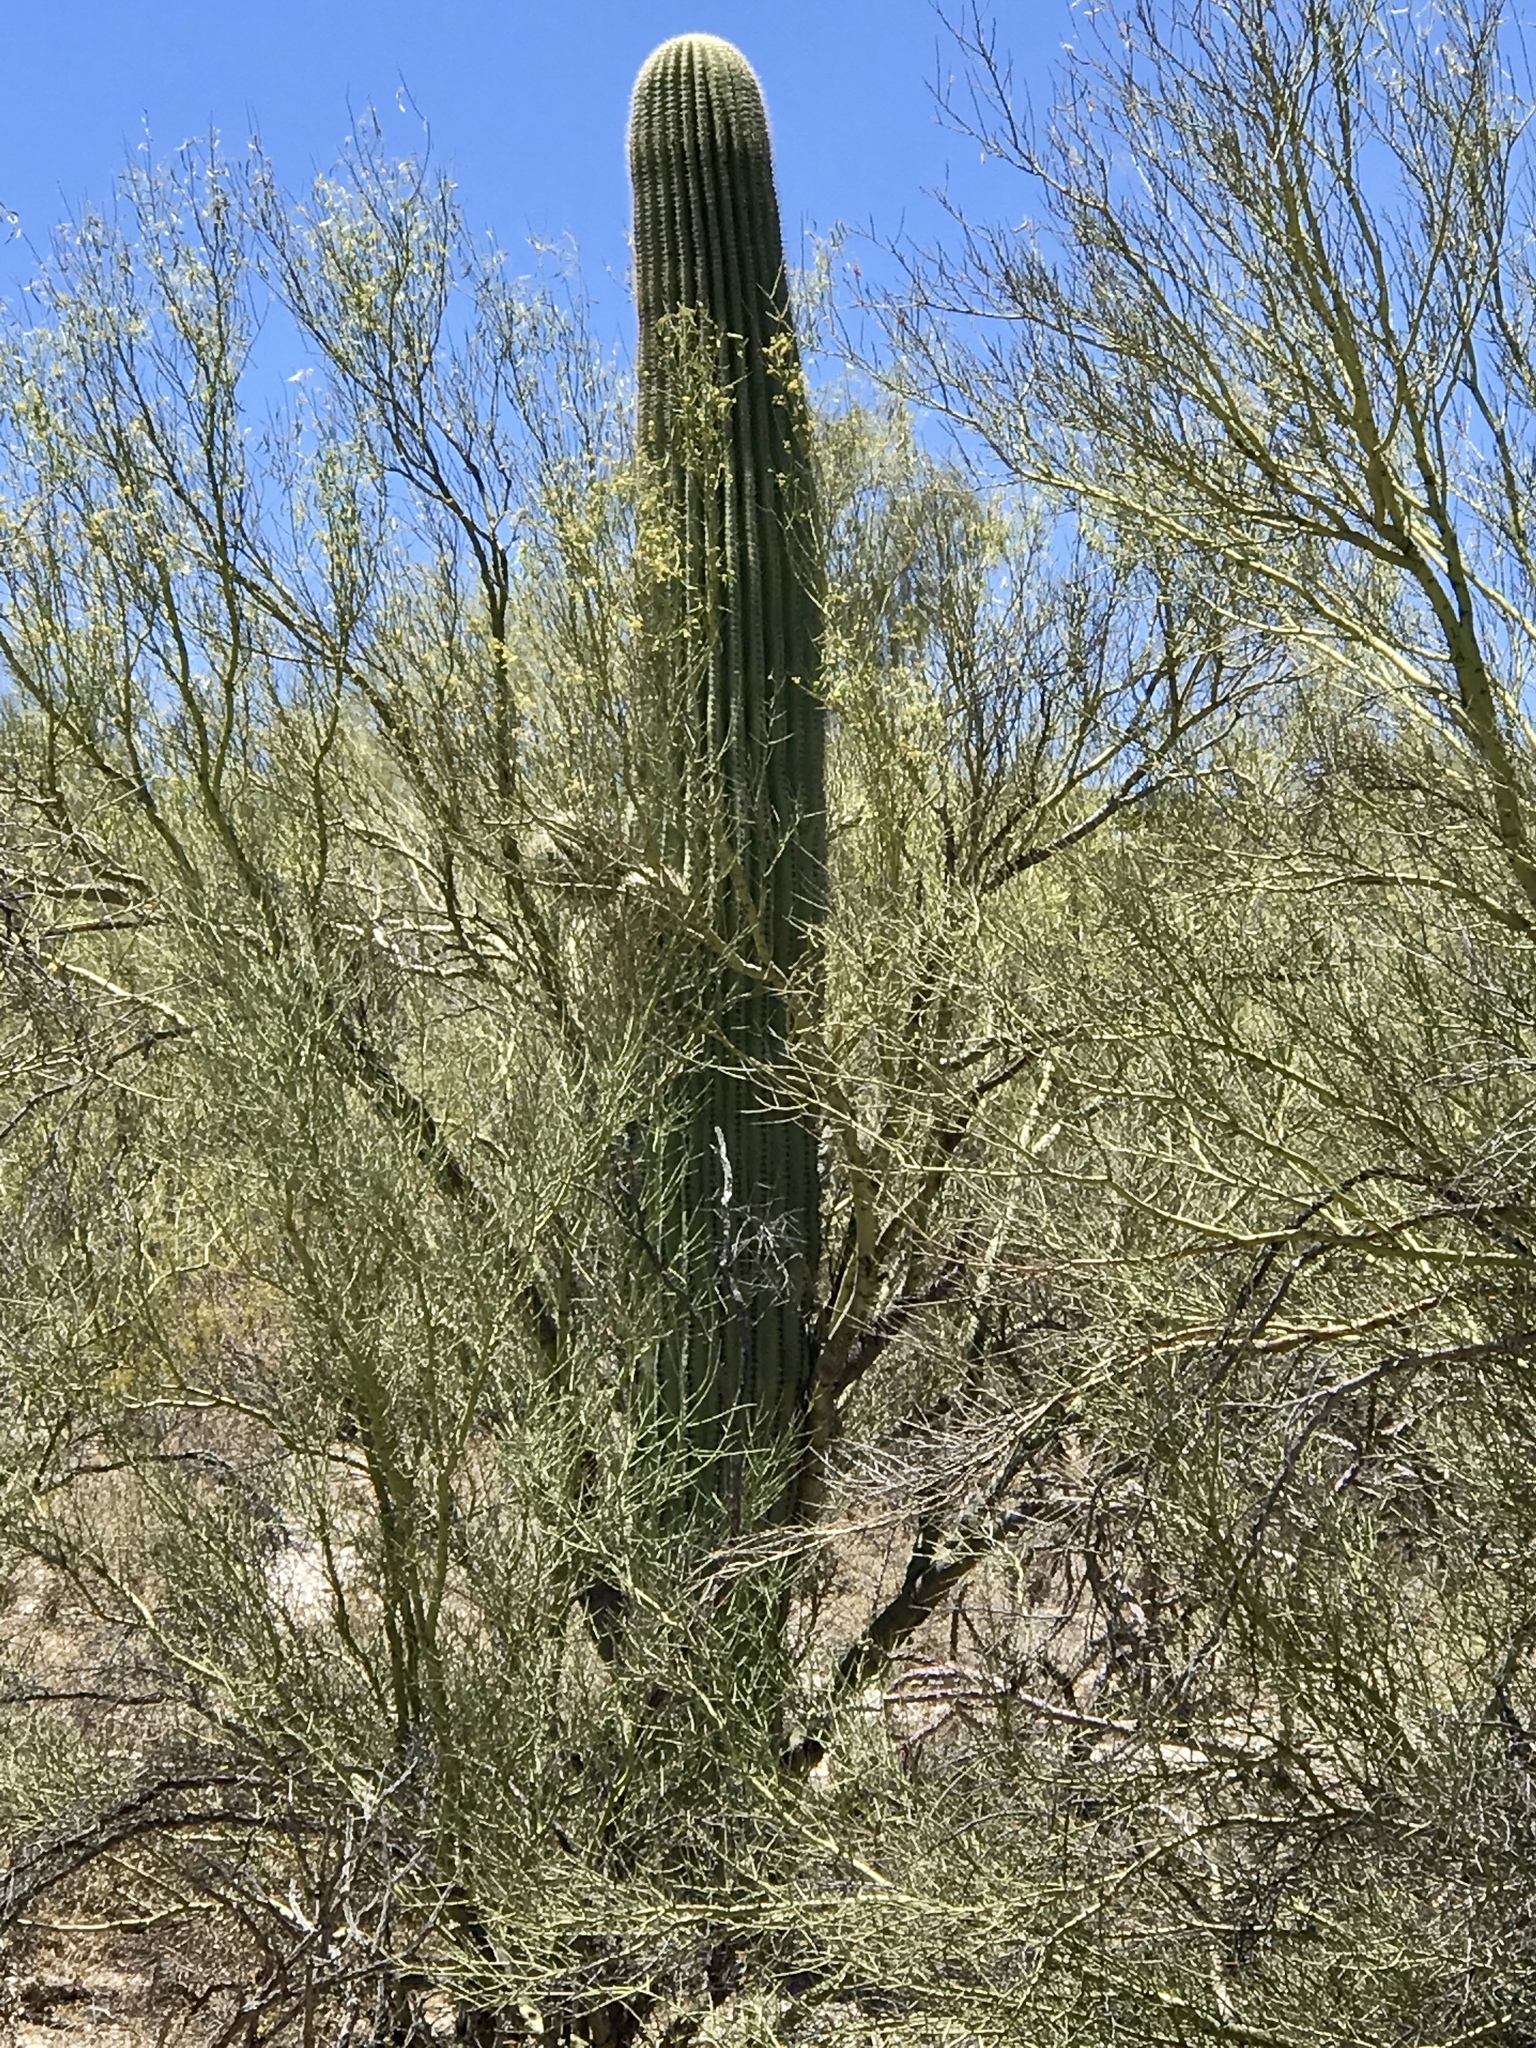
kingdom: Plantae
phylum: Tracheophyta
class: Magnoliopsida
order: Caryophyllales
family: Cactaceae
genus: Carnegiea
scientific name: Carnegiea gigantea
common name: Saguaro
